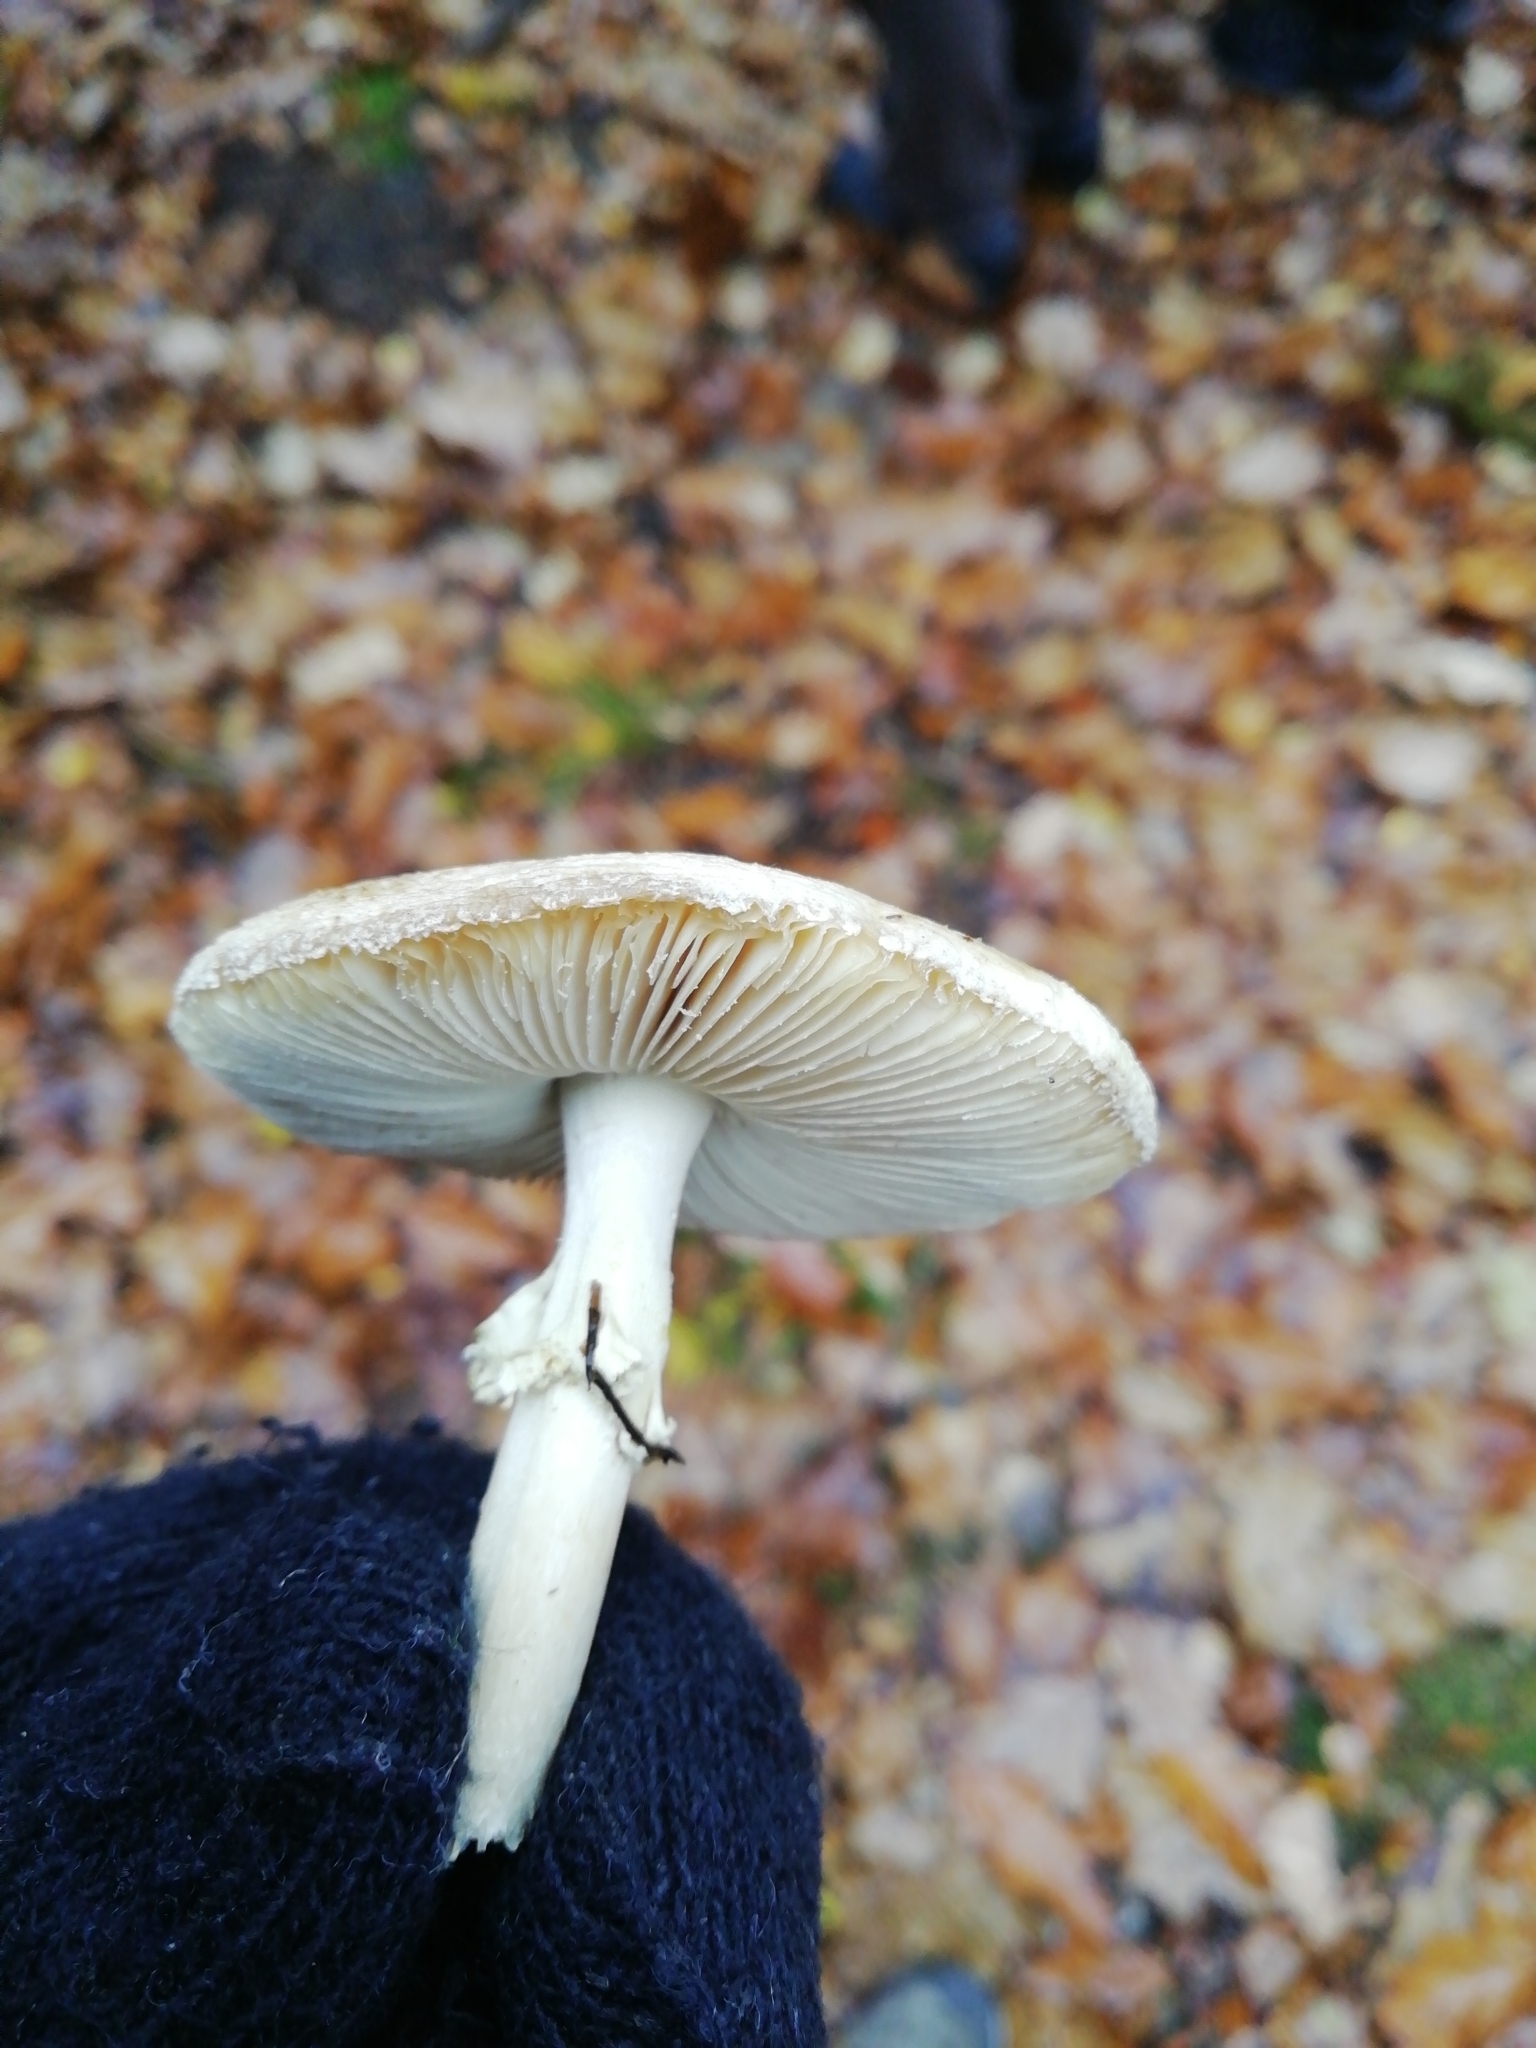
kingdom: Fungi
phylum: Basidiomycota
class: Agaricomycetes
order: Agaricales
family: Amanitaceae
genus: Amanita
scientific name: Amanita citrina
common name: False death-cap
